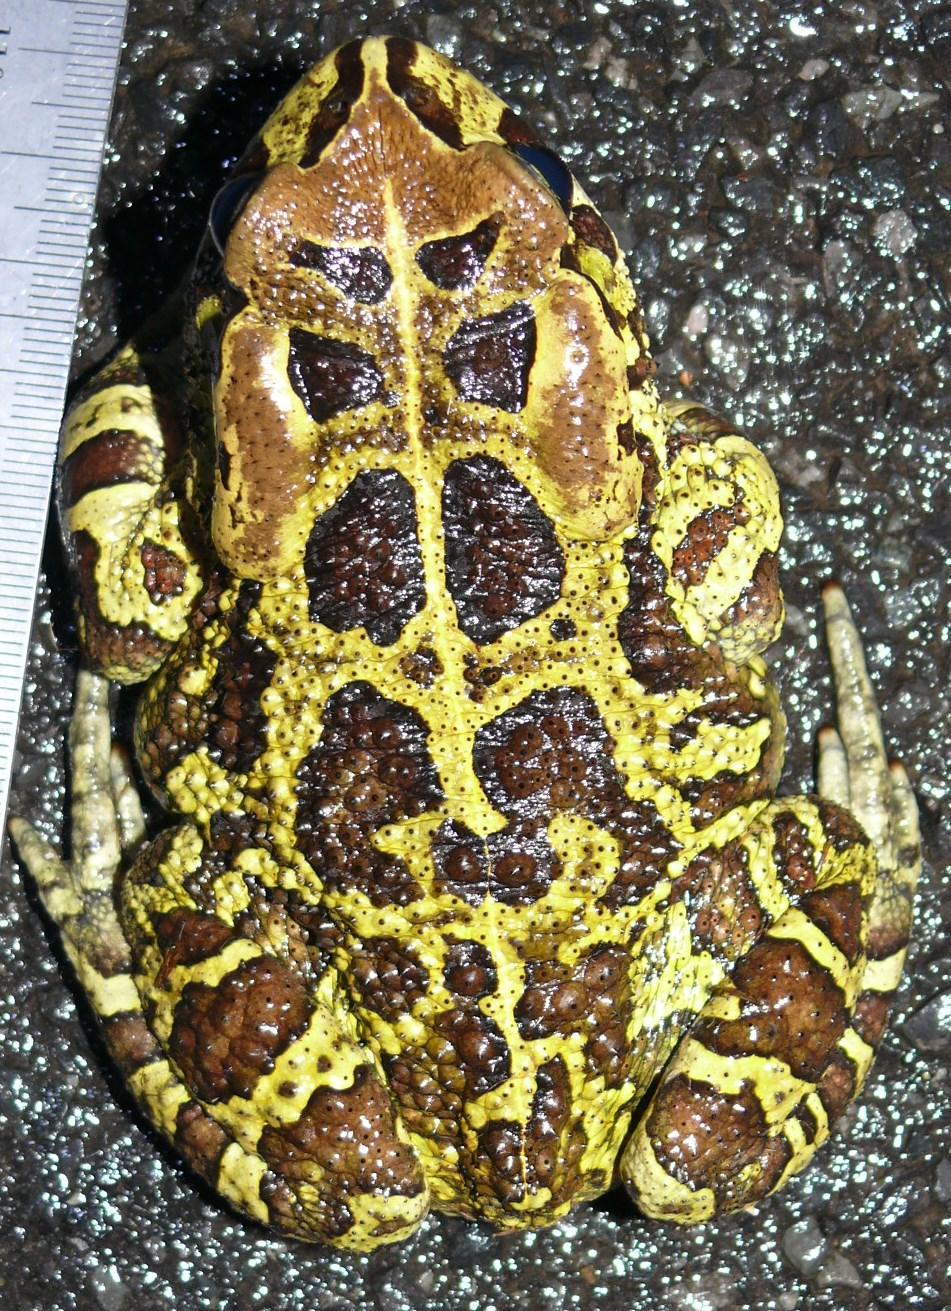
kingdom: Animalia
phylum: Chordata
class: Amphibia
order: Anura
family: Bufonidae
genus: Sclerophrys
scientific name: Sclerophrys pantherina
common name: Panther toad
